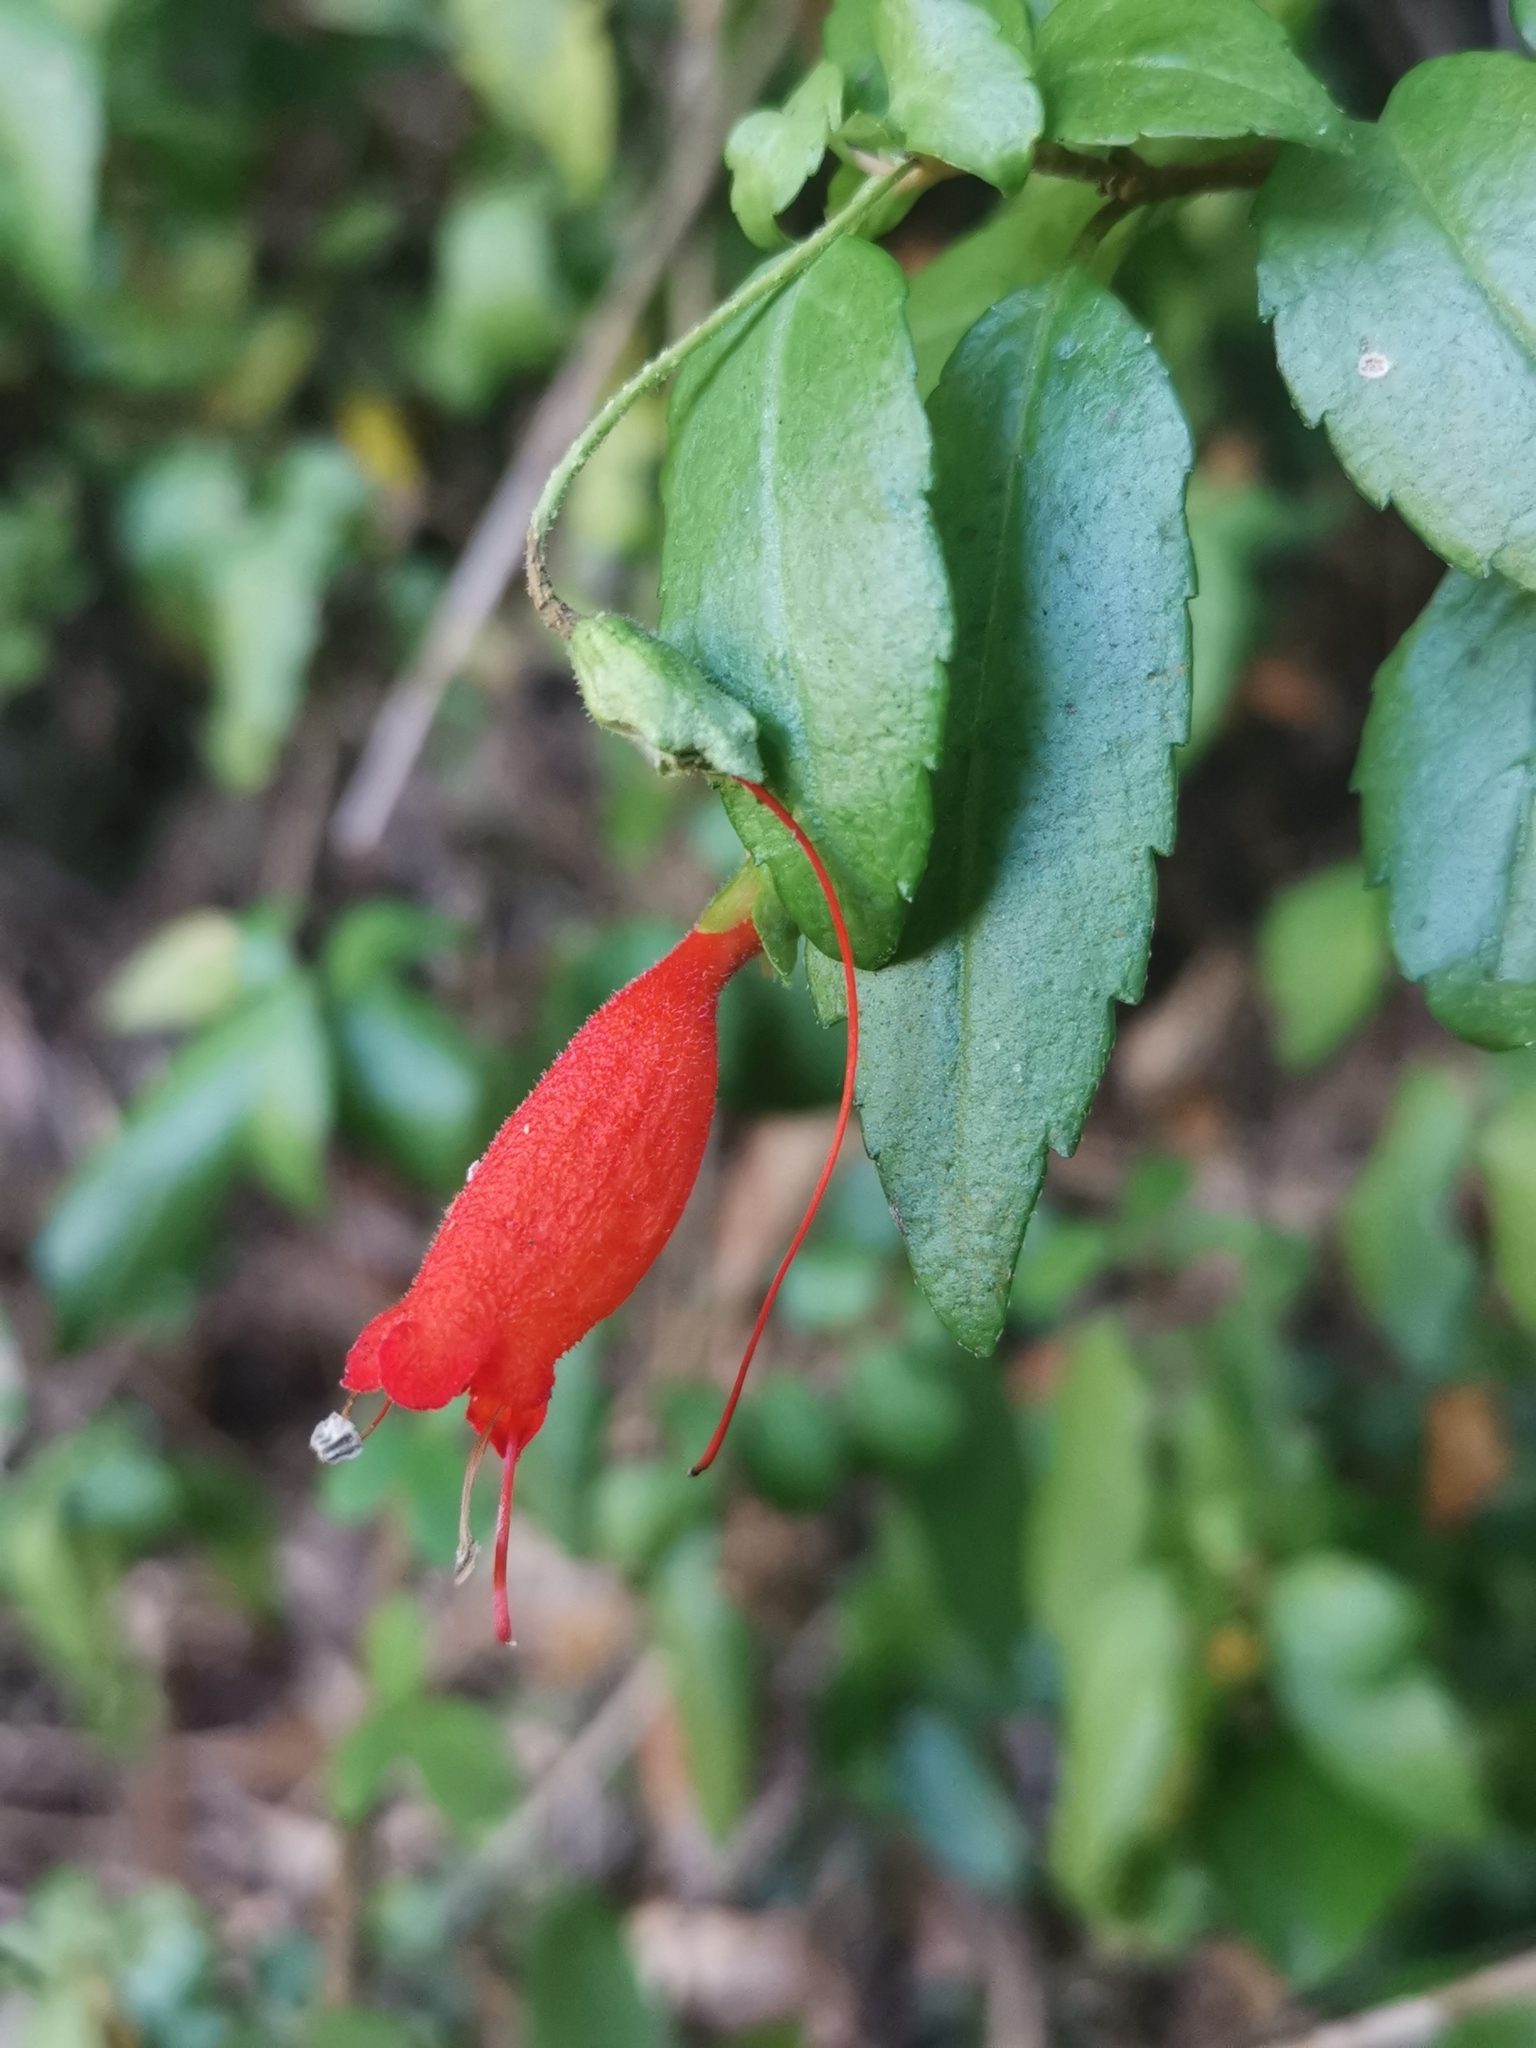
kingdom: Plantae
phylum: Tracheophyta
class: Magnoliopsida
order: Lamiales
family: Gesneriaceae
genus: Mitraria
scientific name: Mitraria coccinea
